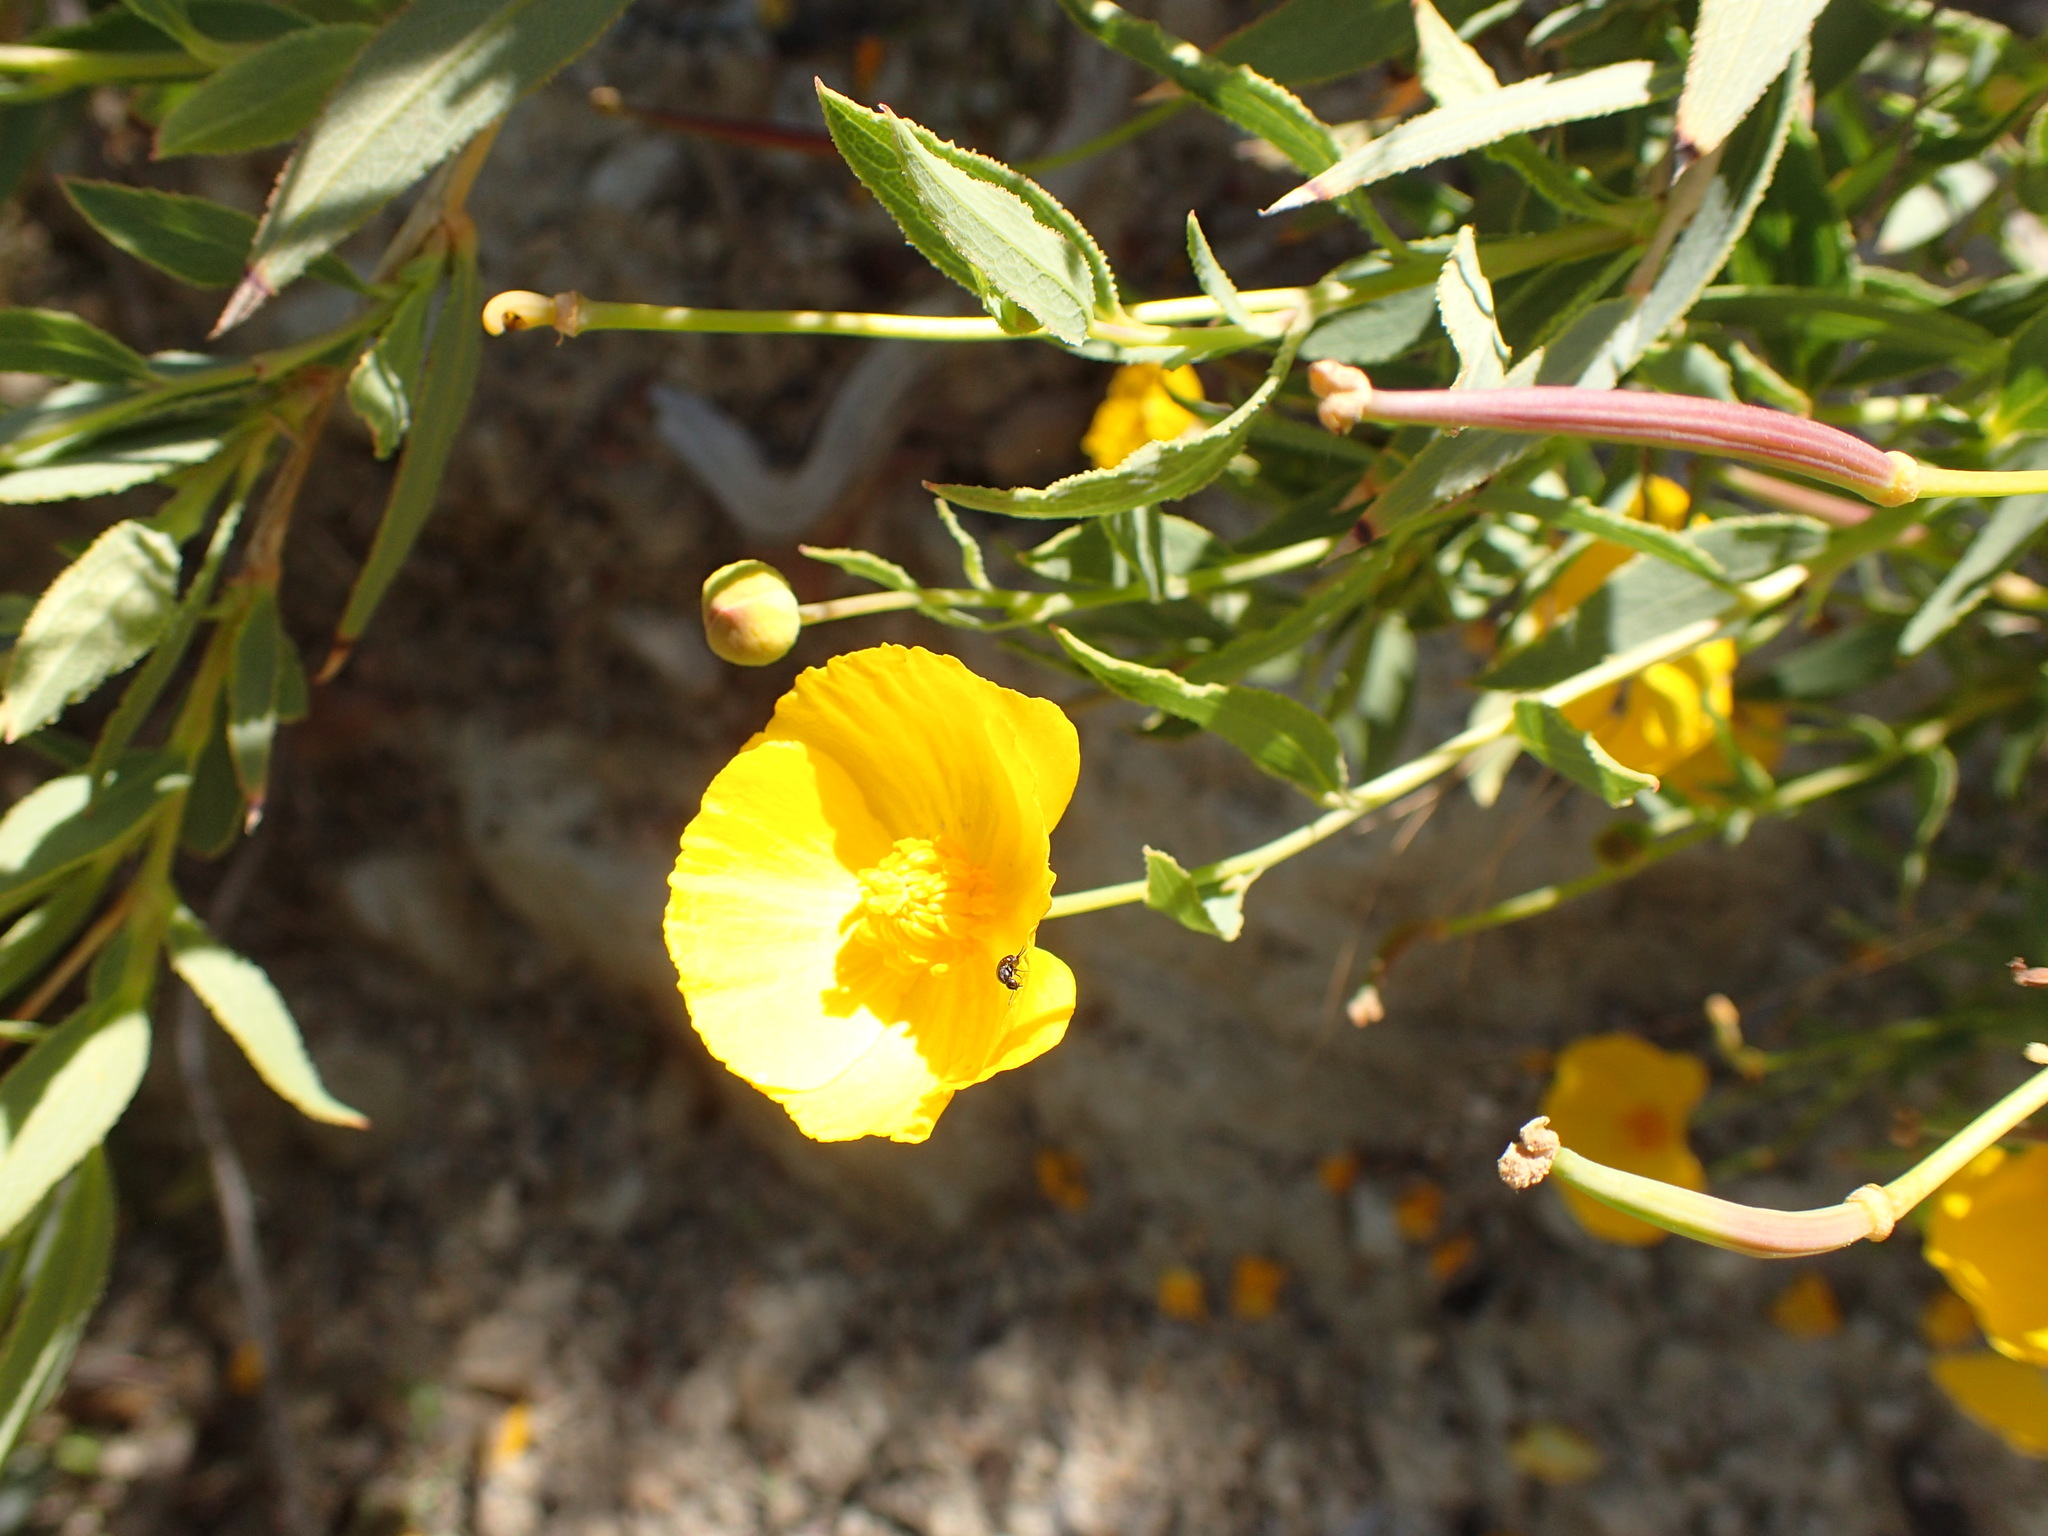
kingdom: Plantae
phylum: Tracheophyta
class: Magnoliopsida
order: Ranunculales
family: Papaveraceae
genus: Dendromecon
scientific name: Dendromecon rigida
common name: Tree poppy
